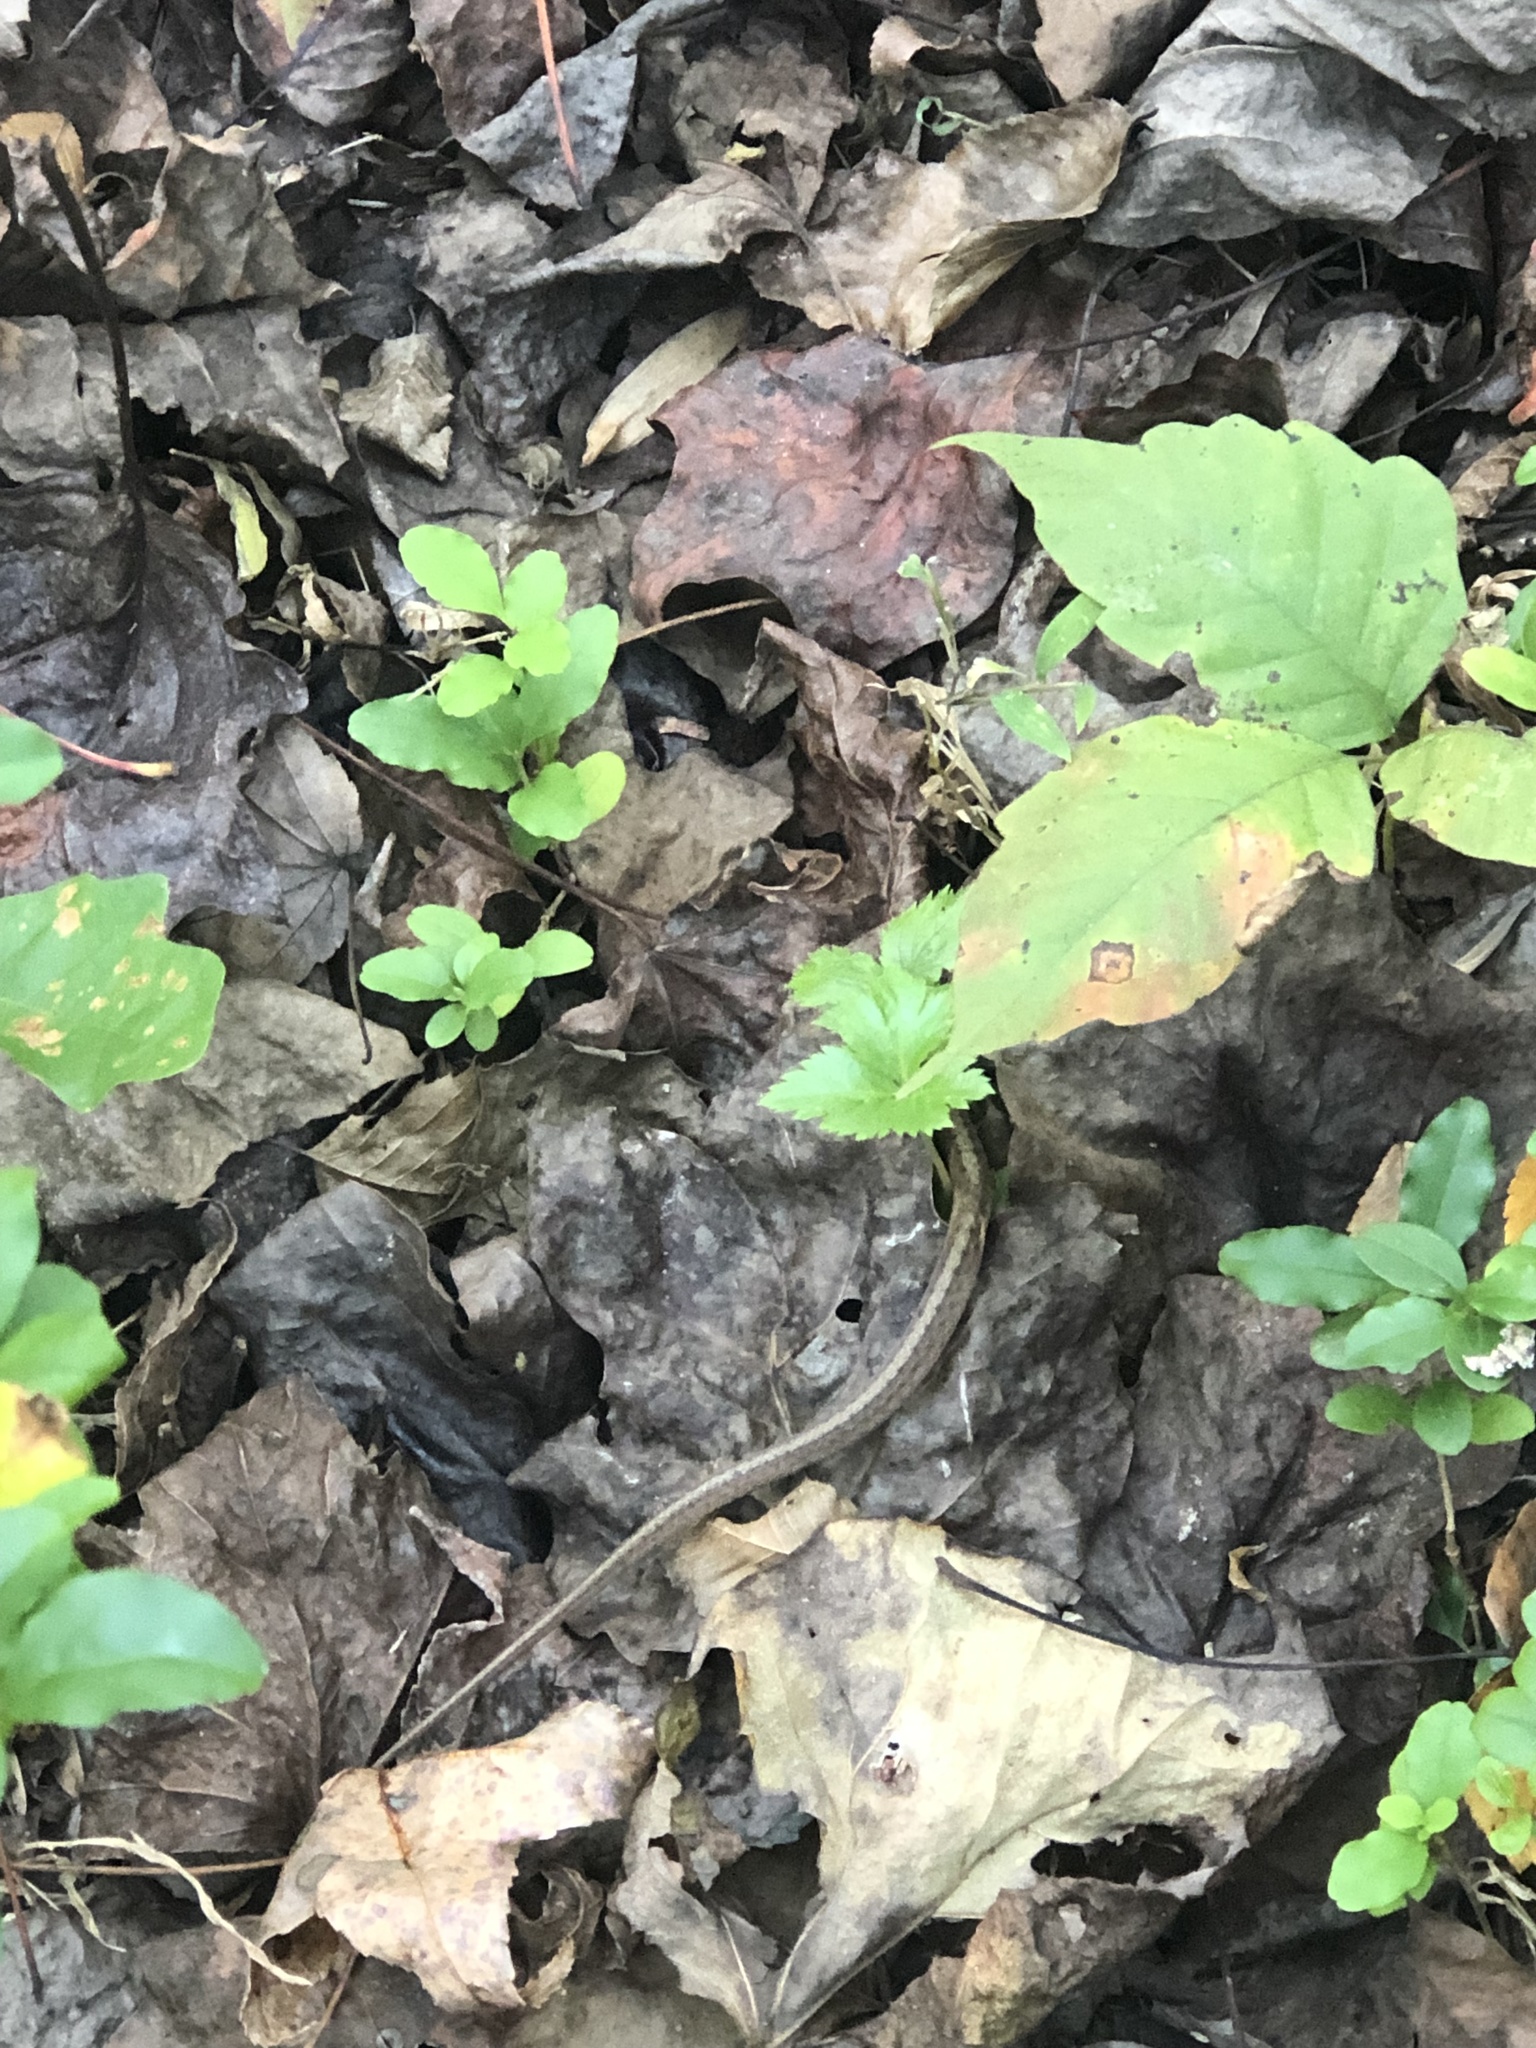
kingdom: Animalia
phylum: Chordata
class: Squamata
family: Colubridae
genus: Storeria
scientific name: Storeria dekayi
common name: (dekay’s) brown snake
